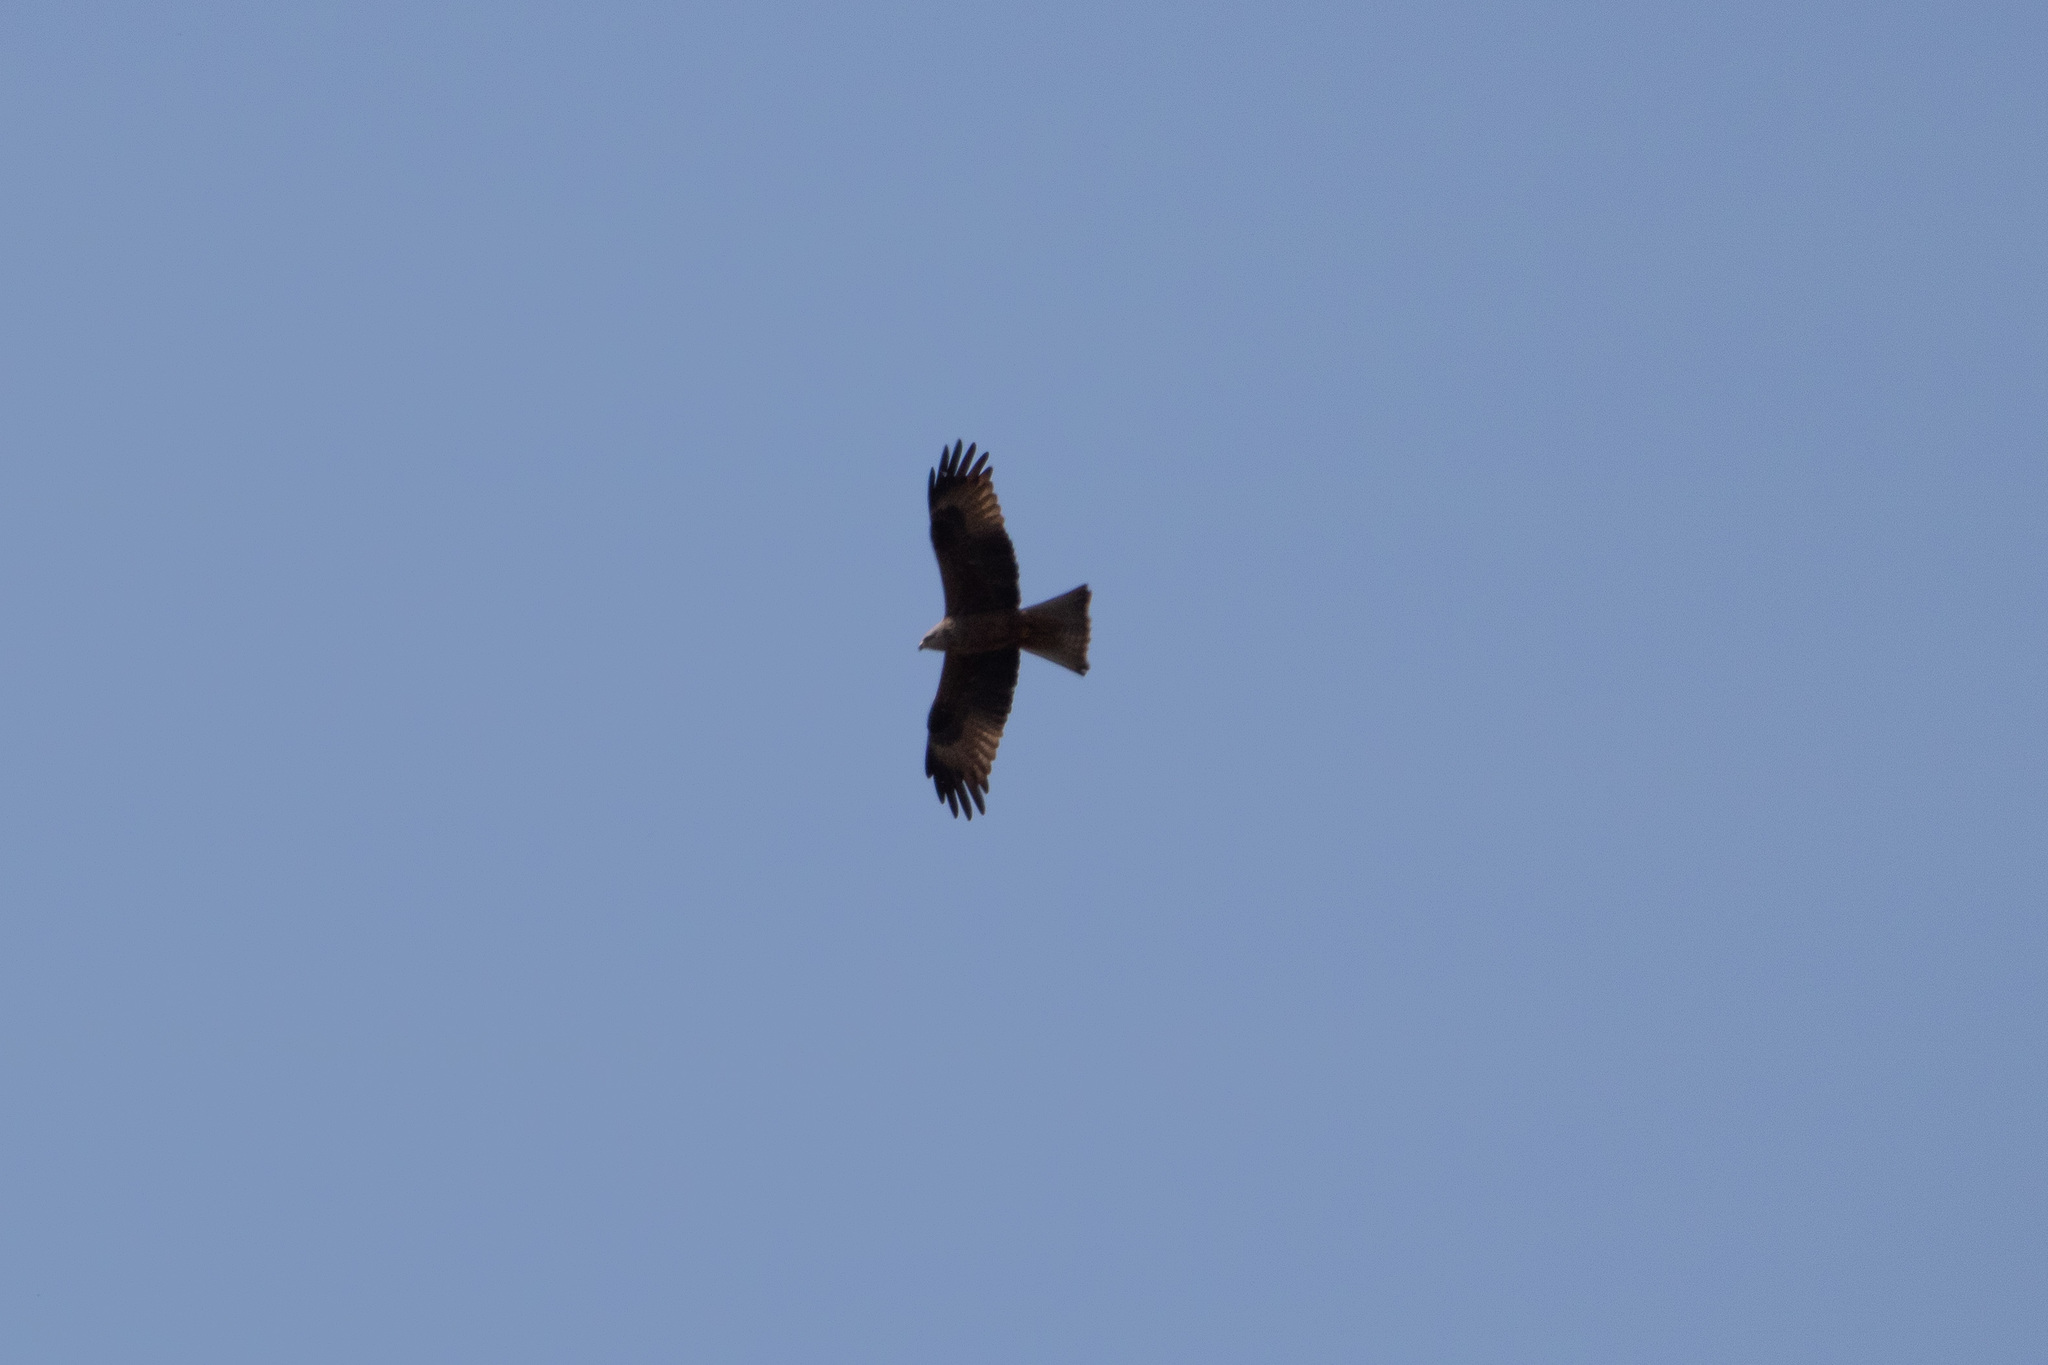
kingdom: Animalia
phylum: Chordata
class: Aves
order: Accipitriformes
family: Accipitridae
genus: Milvus
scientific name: Milvus migrans
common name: Black kite
